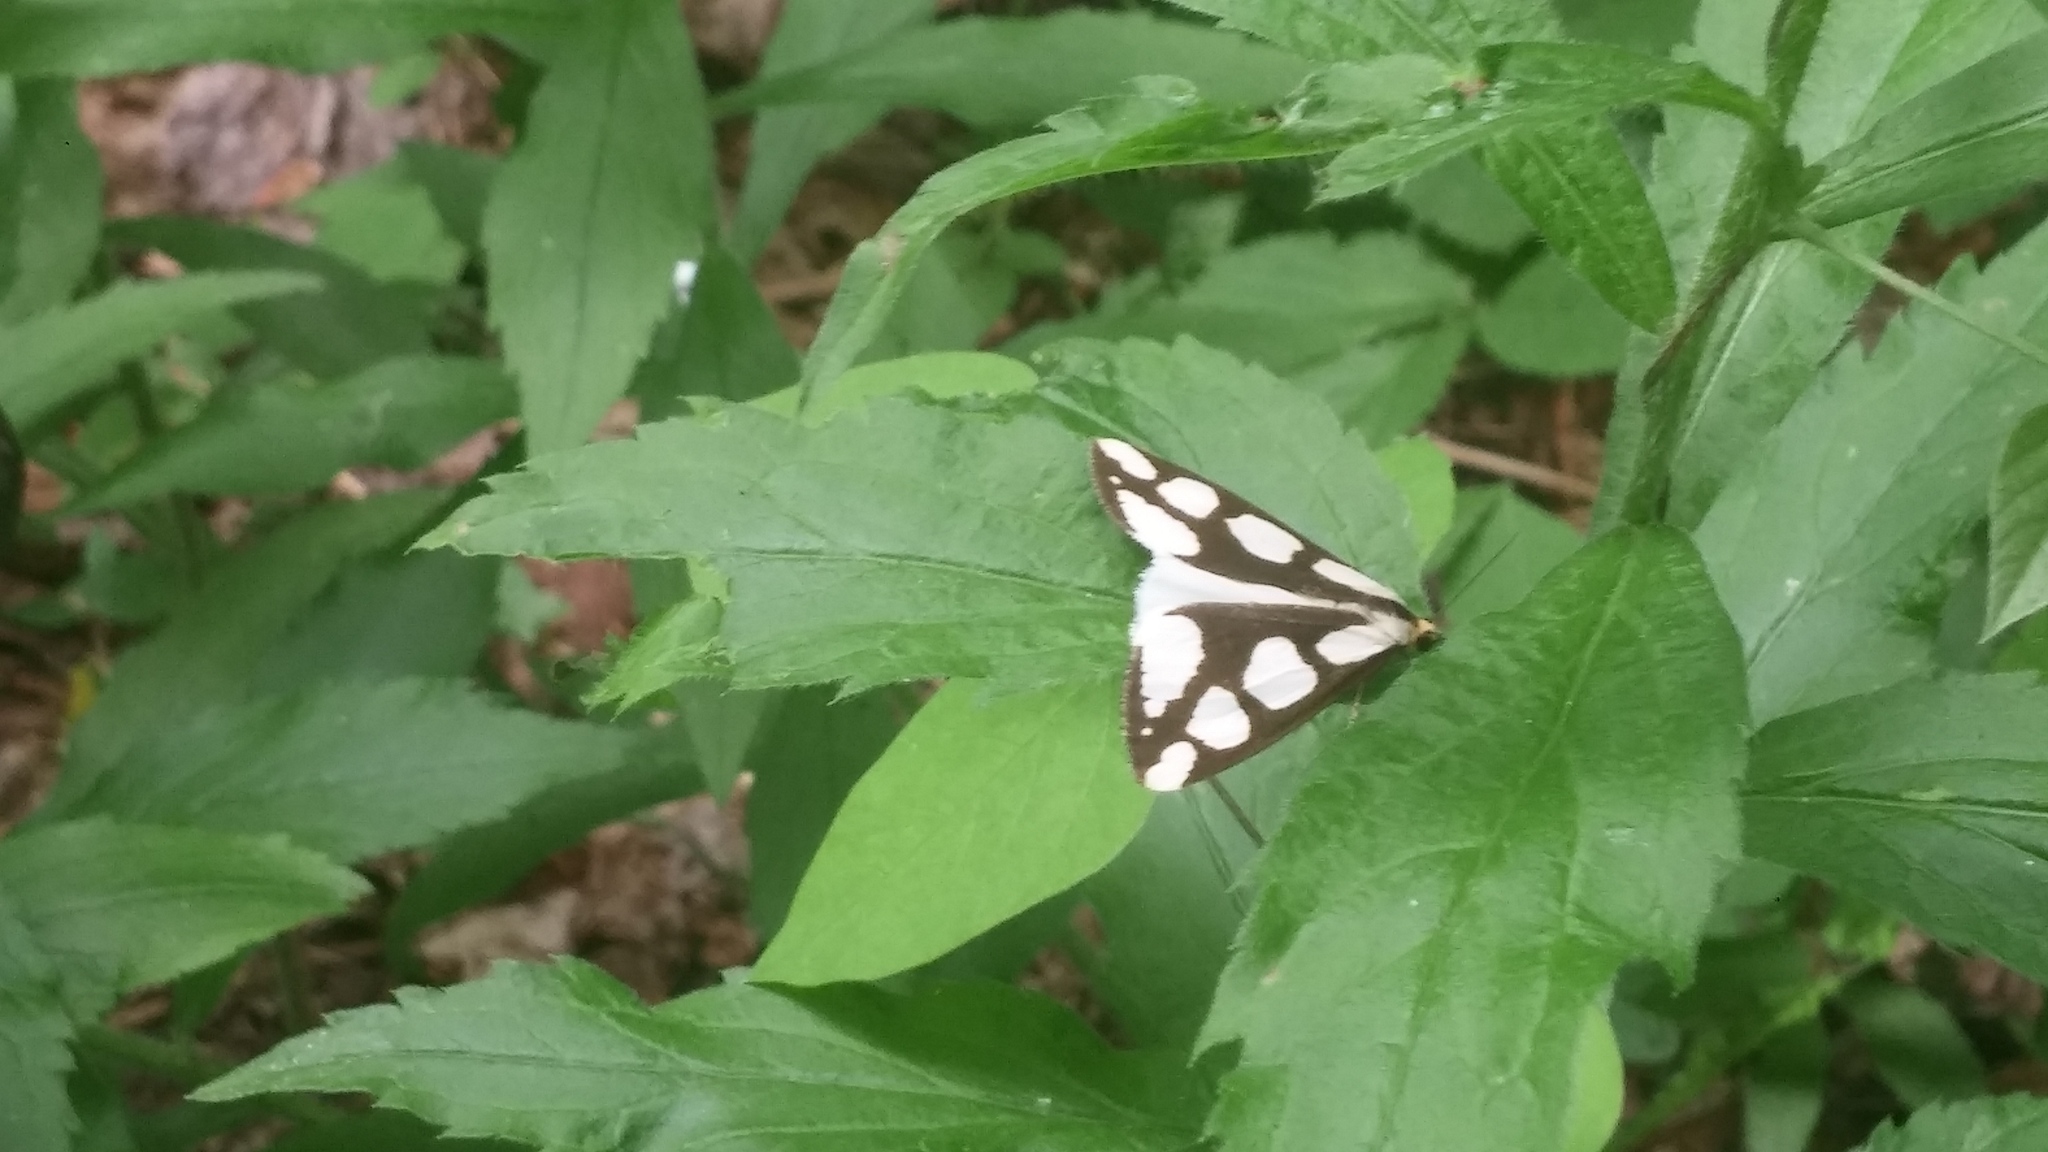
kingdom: Animalia
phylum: Arthropoda
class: Insecta
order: Lepidoptera
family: Erebidae
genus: Haploa
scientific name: Haploa lecontei
